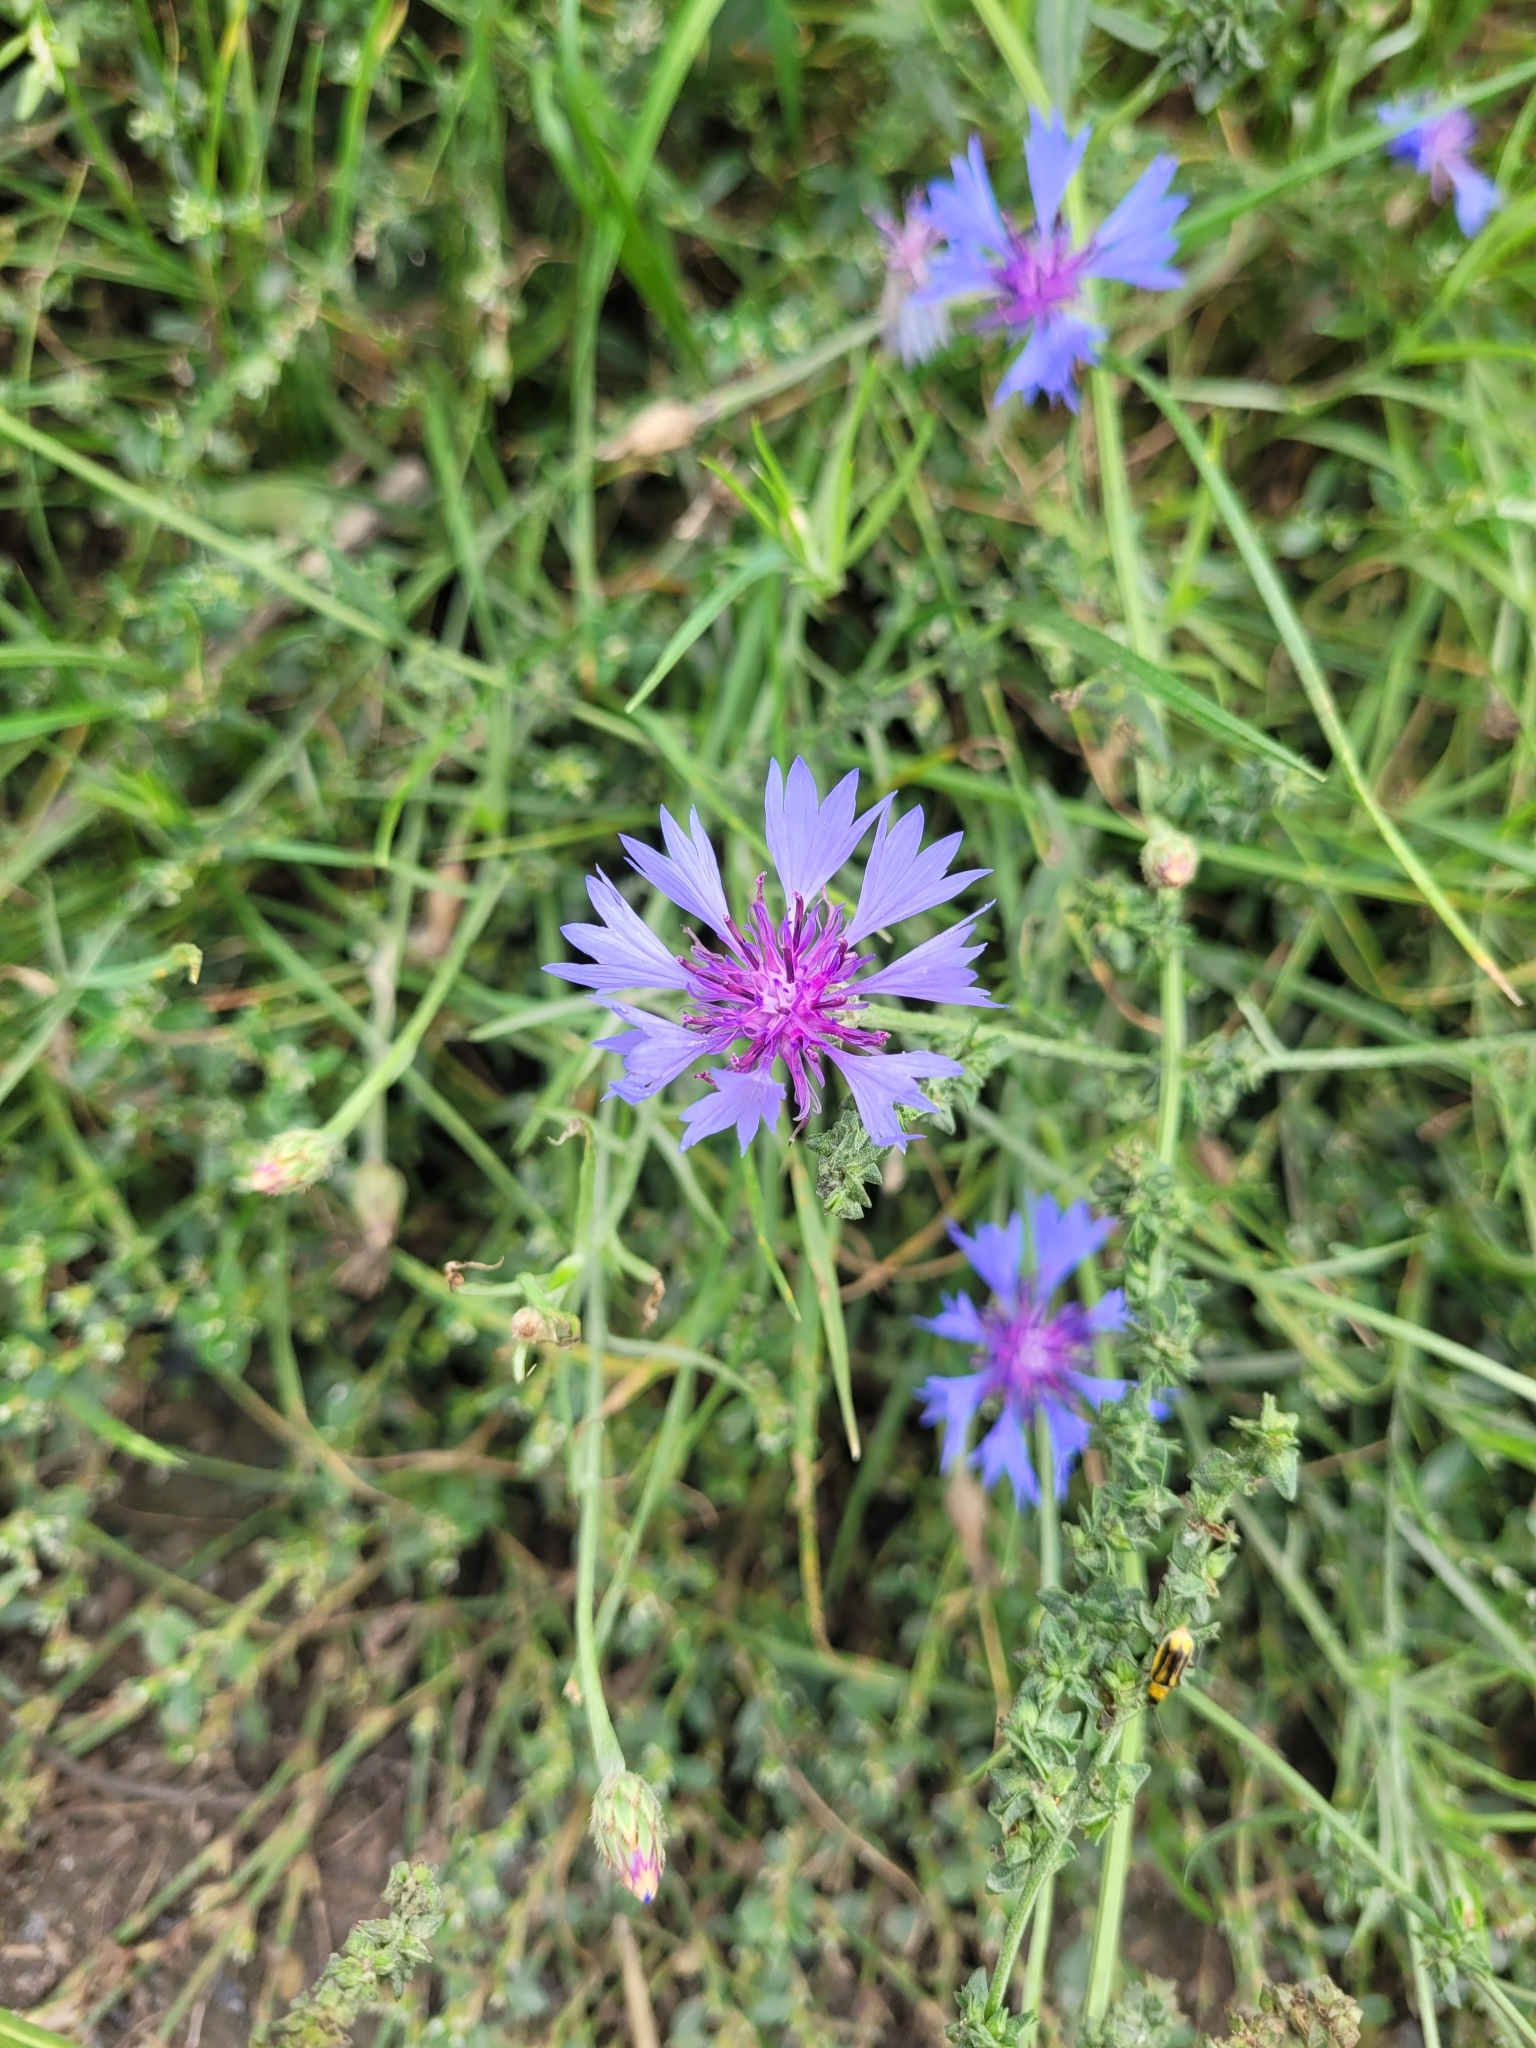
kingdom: Plantae
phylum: Tracheophyta
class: Magnoliopsida
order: Asterales
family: Asteraceae
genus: Centaurea
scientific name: Centaurea cyanus
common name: Cornflower
